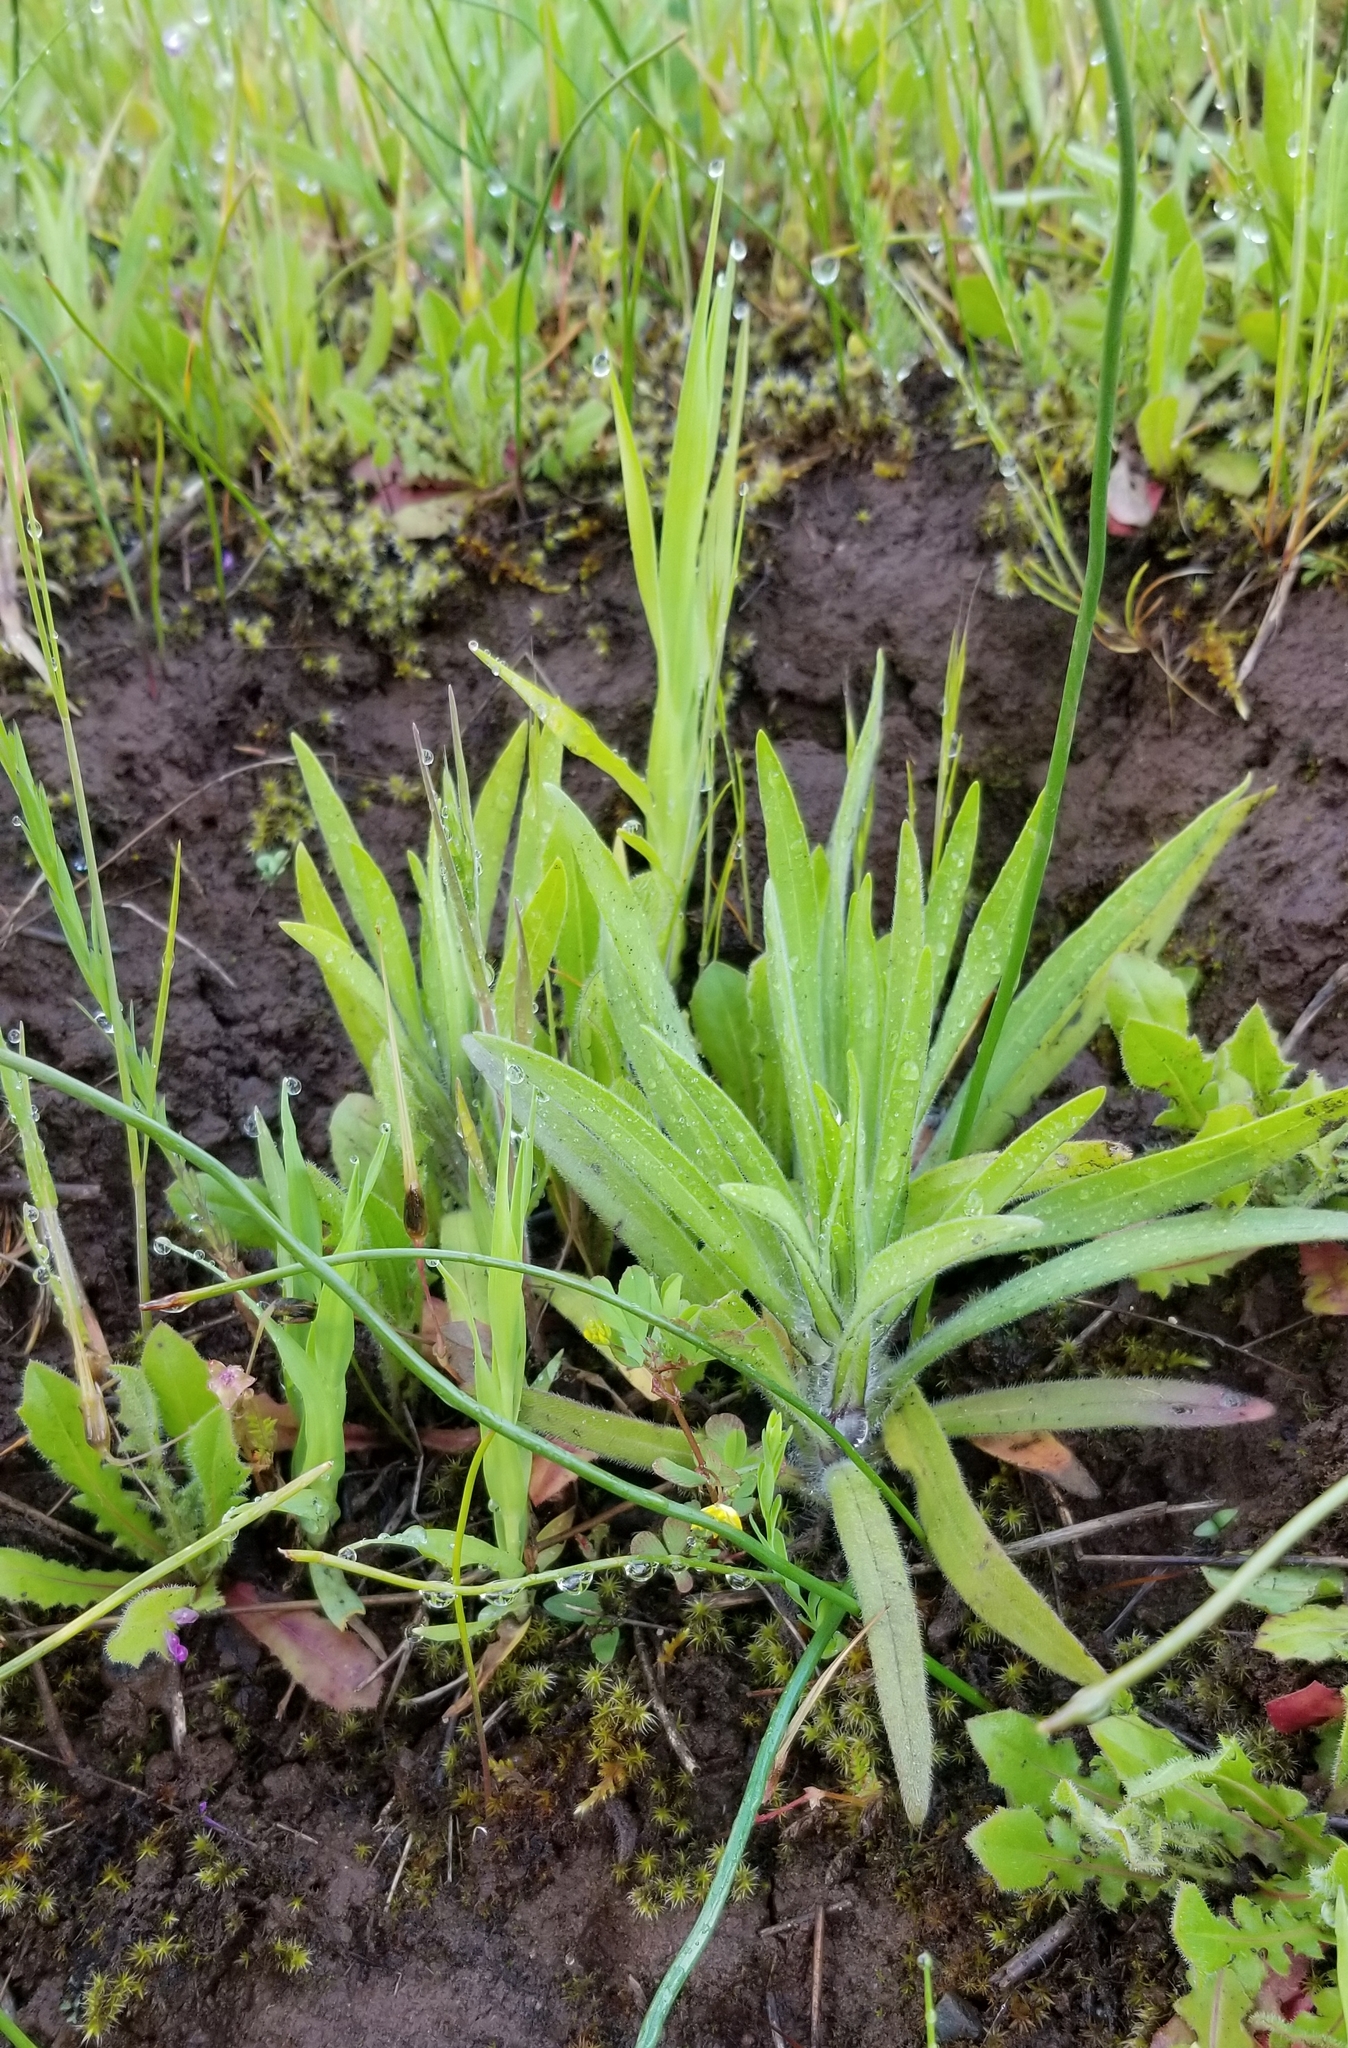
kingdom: Plantae
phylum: Tracheophyta
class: Magnoliopsida
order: Asterales
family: Asteraceae
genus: Madia
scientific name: Madia elegans
